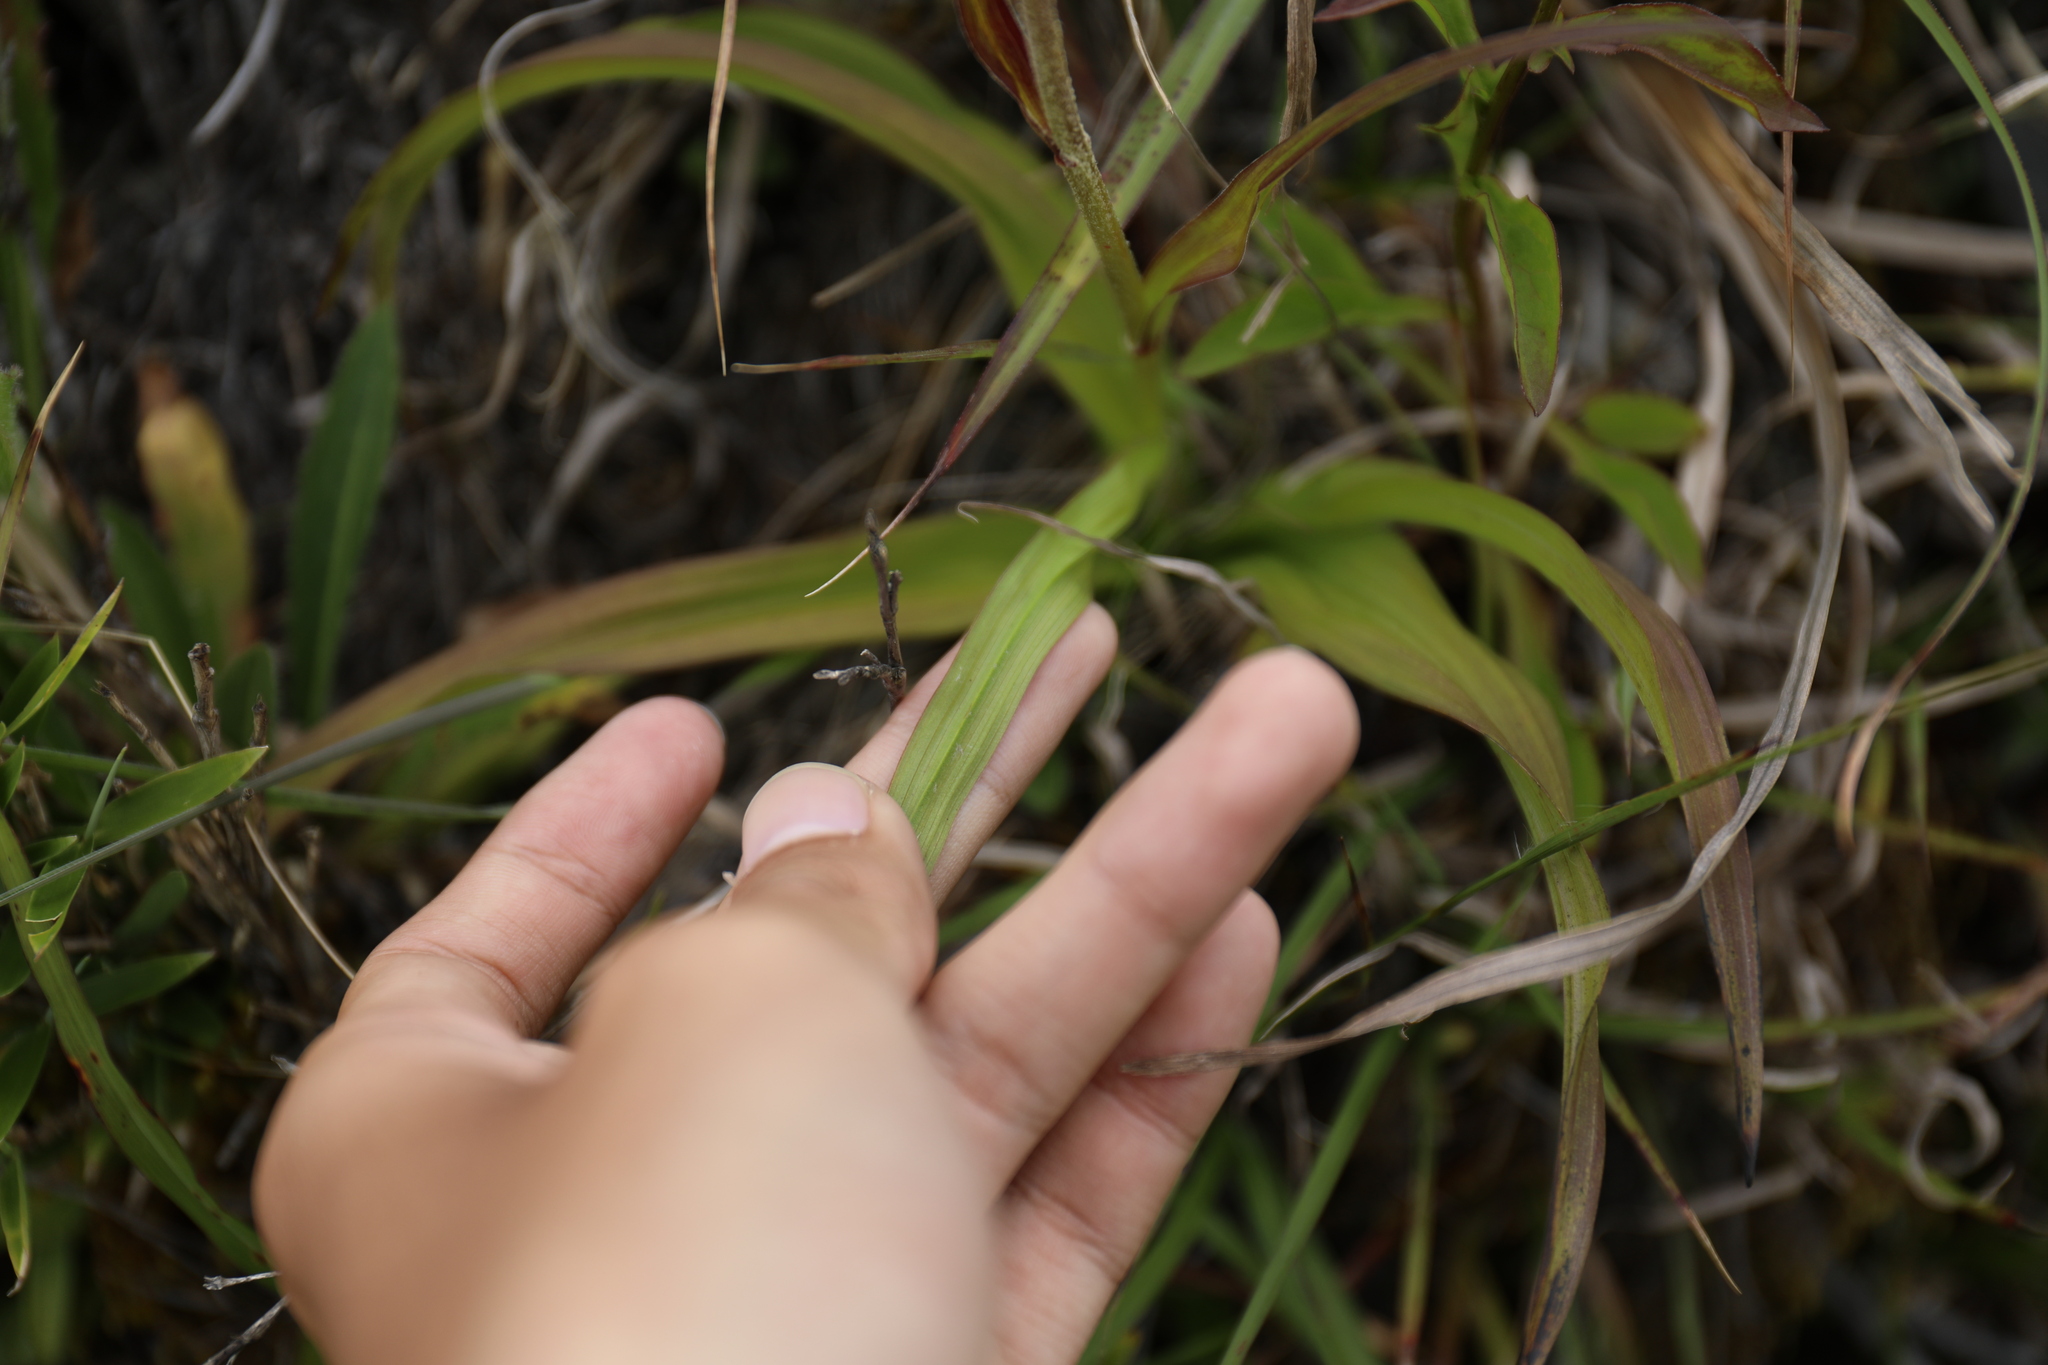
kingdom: Plantae
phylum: Tracheophyta
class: Liliopsida
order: Liliales
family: Melanthiaceae
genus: Veratrum
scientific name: Veratrum formosanum
